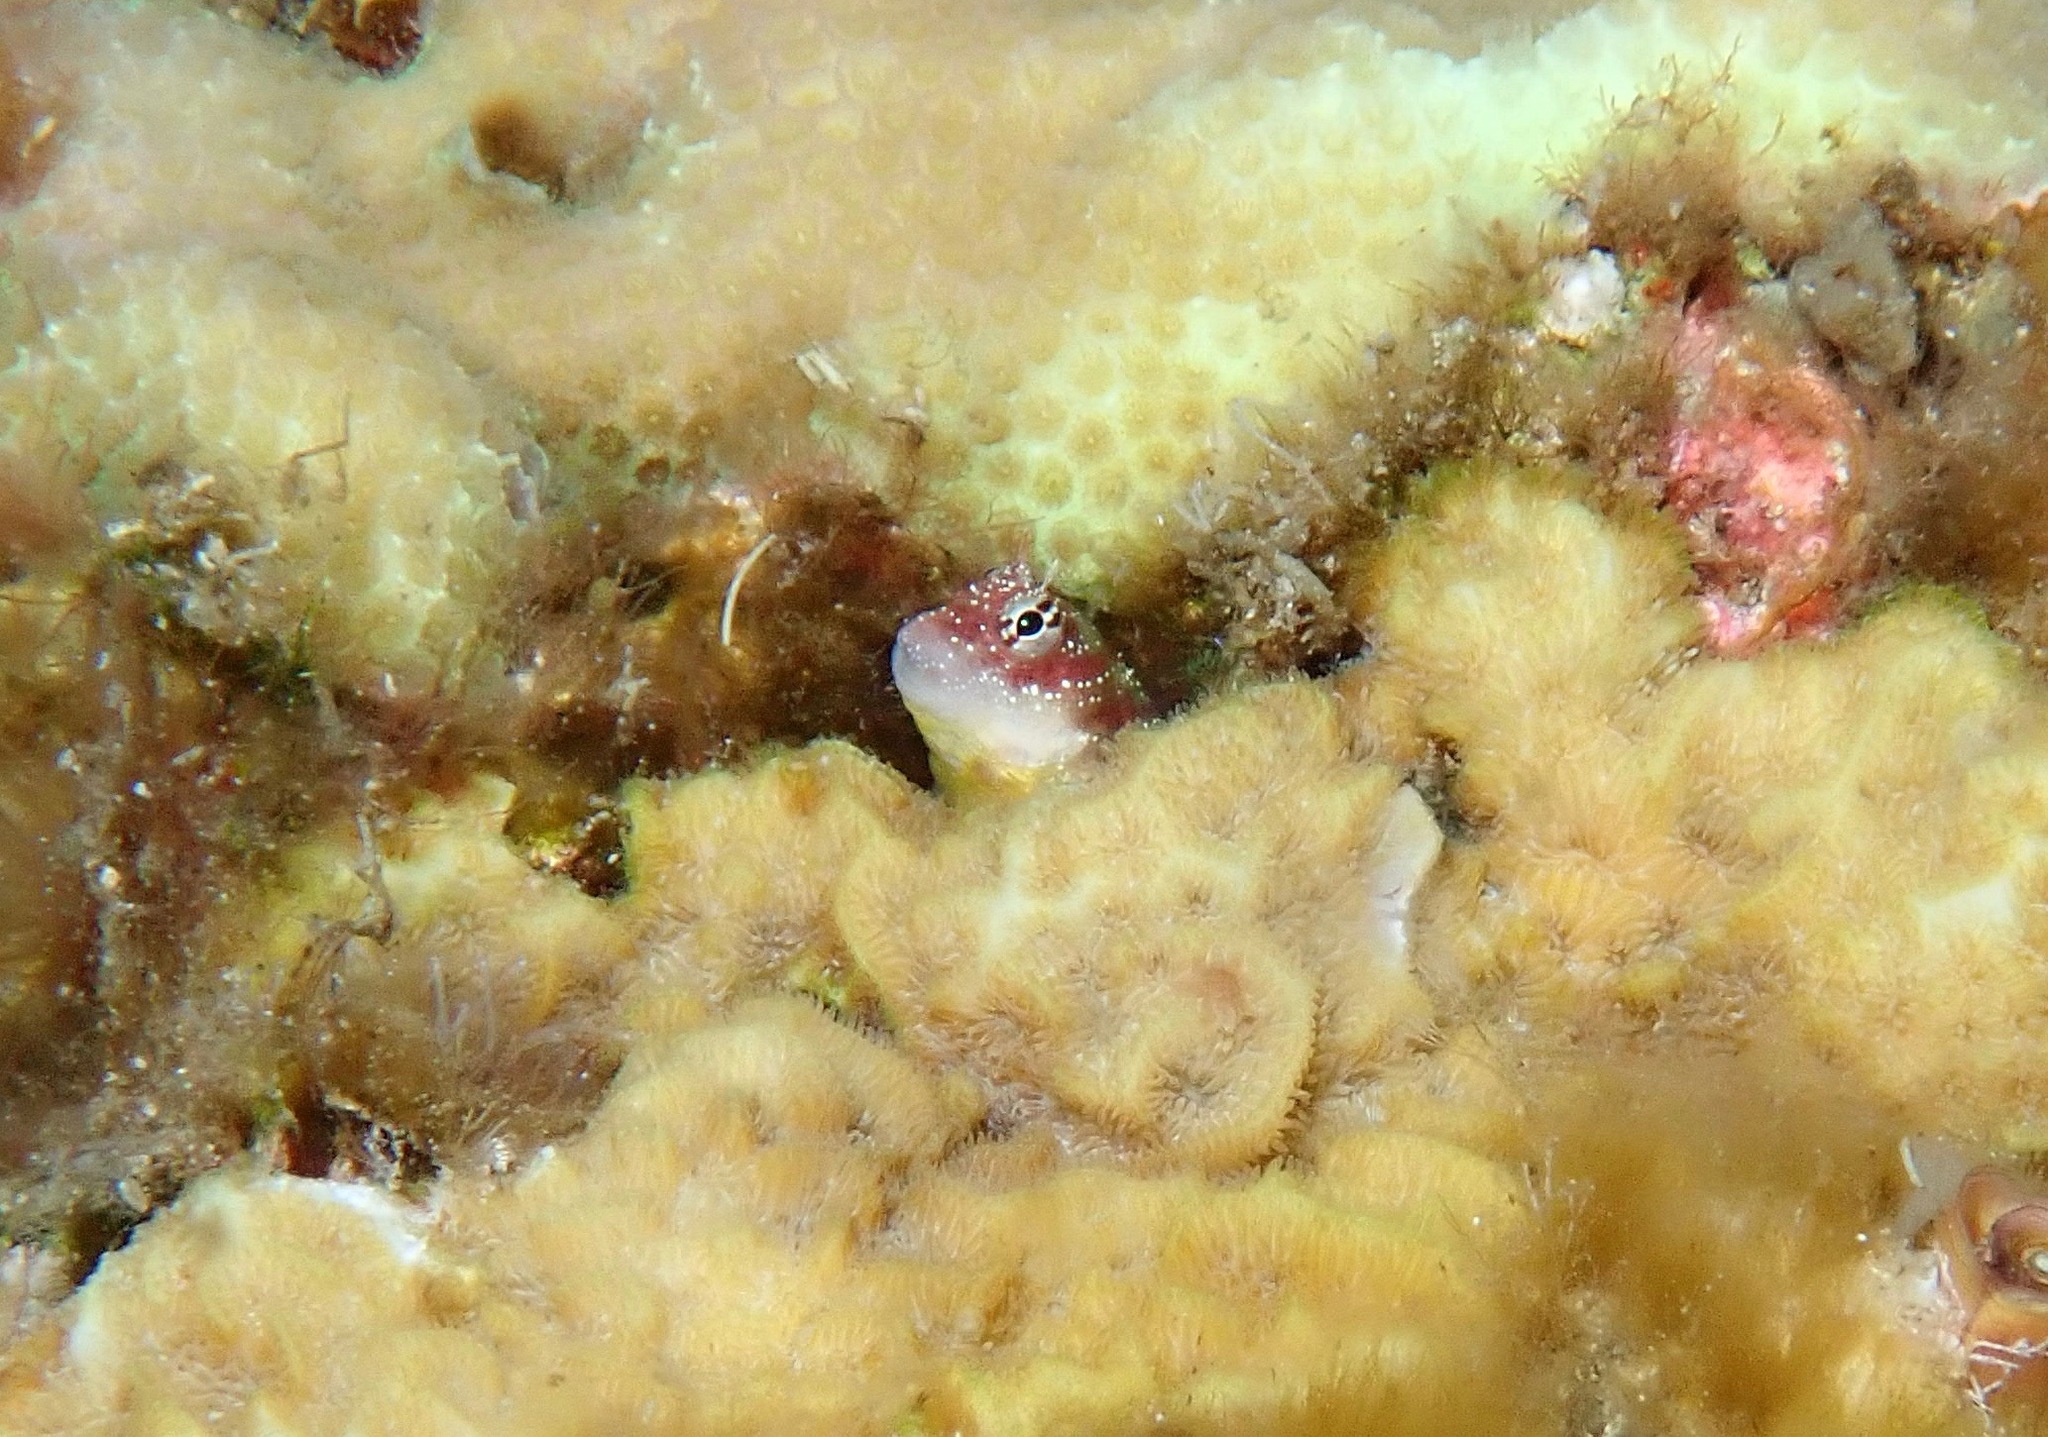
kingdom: Animalia
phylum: Chordata
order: Perciformes
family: Blenniidae
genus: Nannosalarias
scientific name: Nannosalarias nativitatis
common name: Christmas blenny
